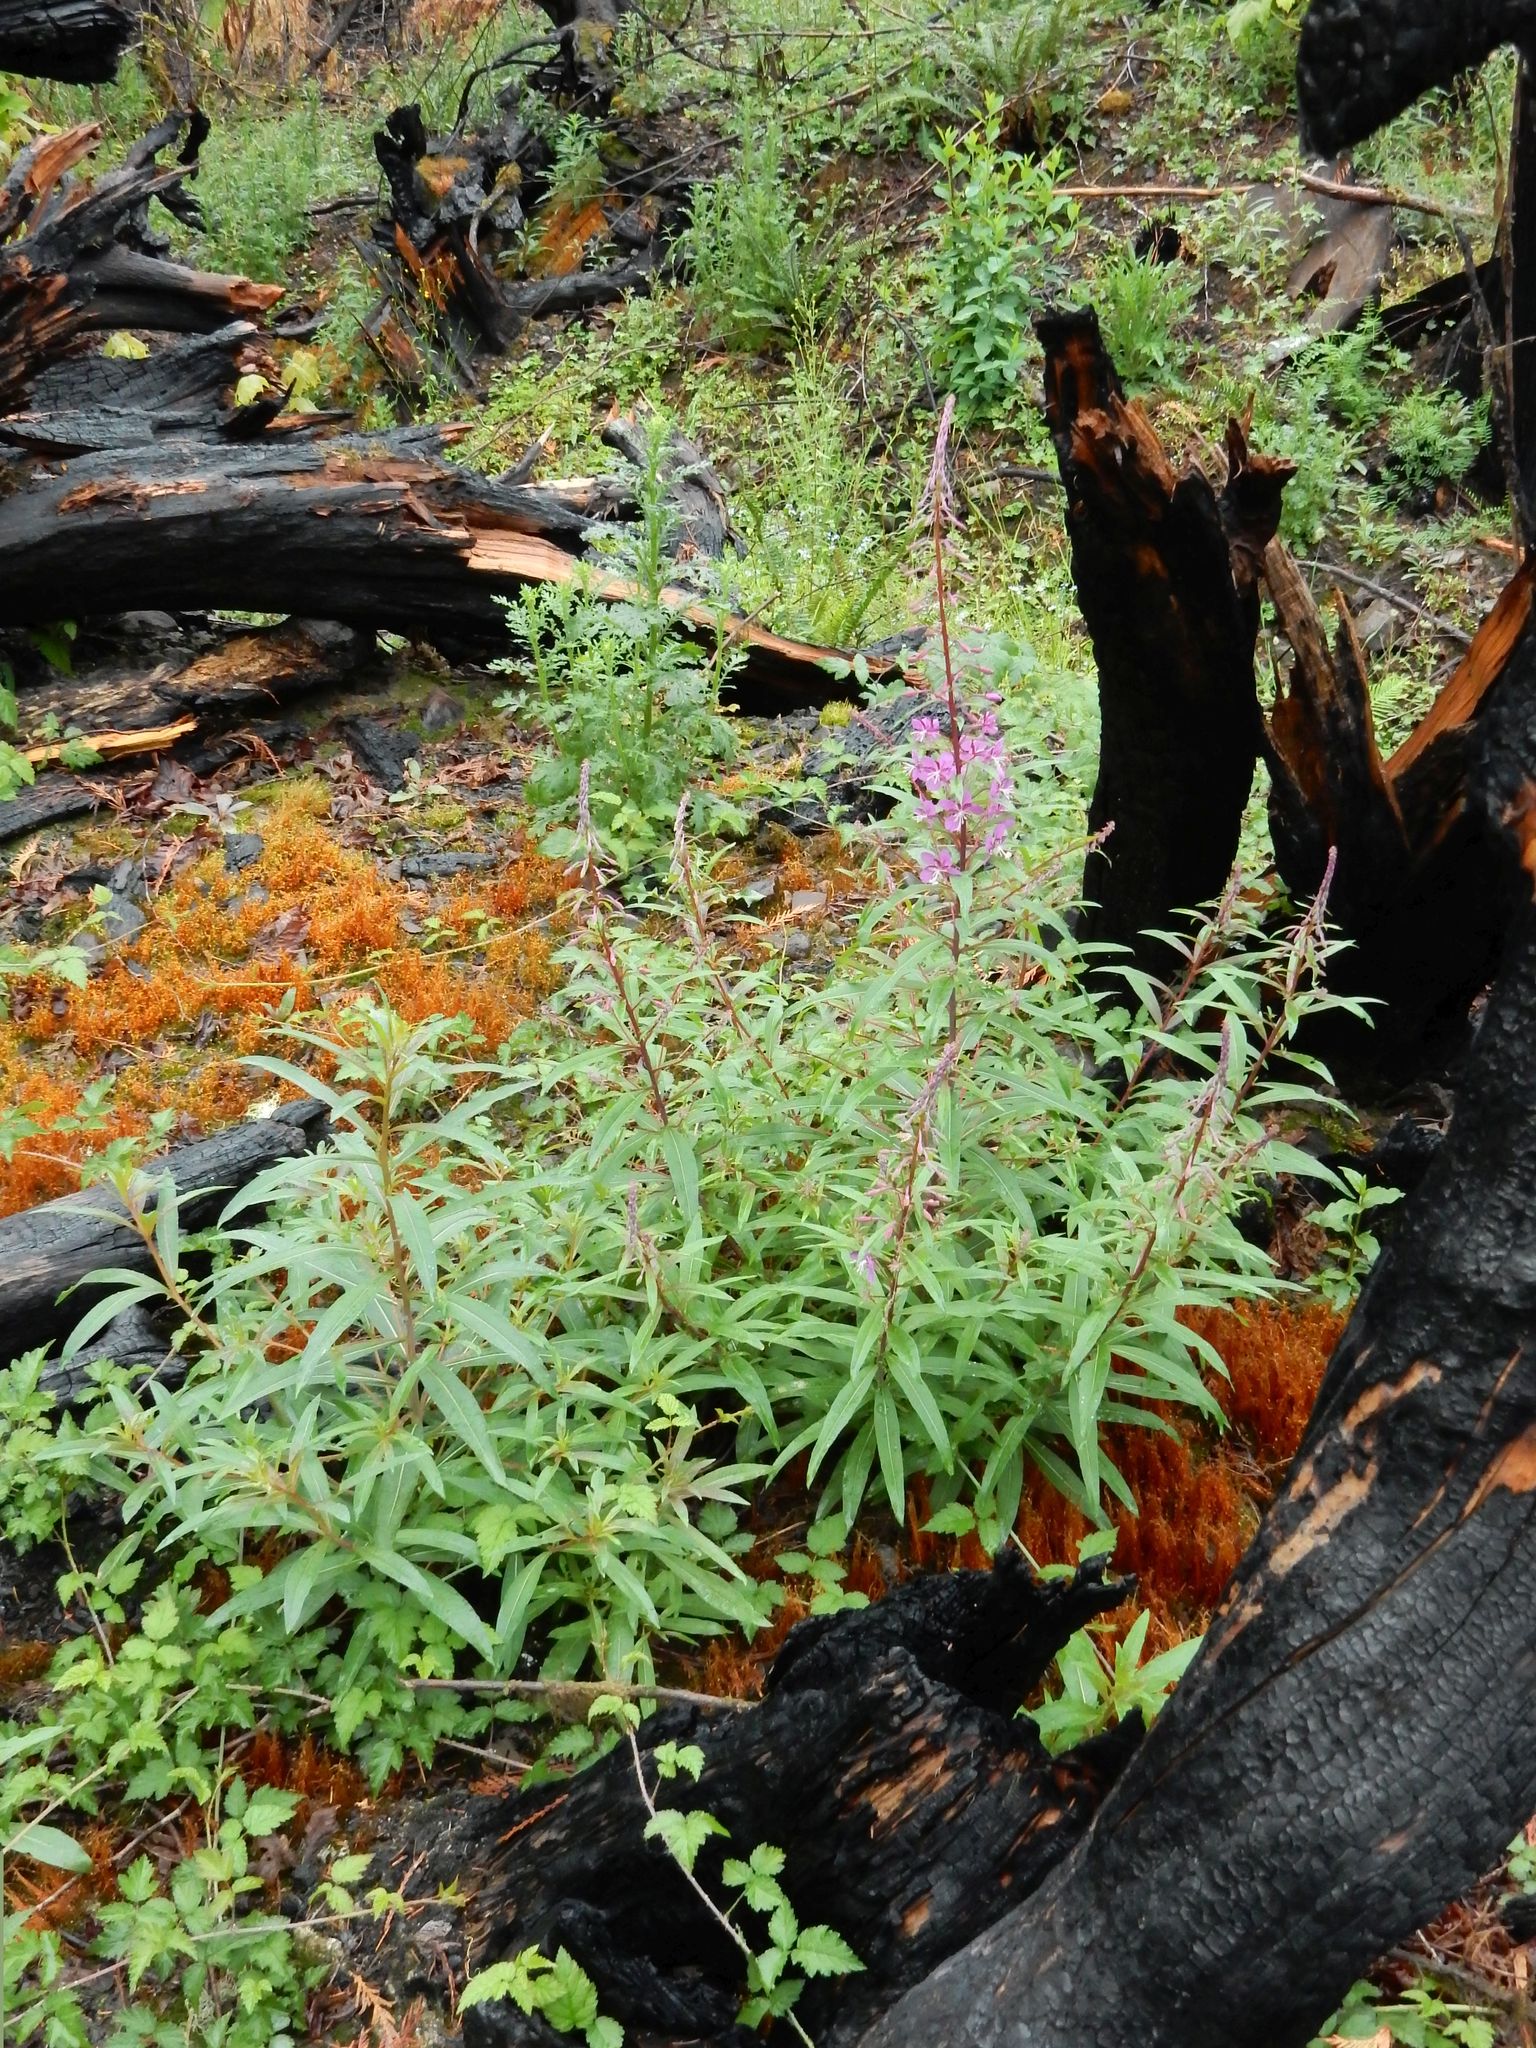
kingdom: Plantae
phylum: Tracheophyta
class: Magnoliopsida
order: Myrtales
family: Onagraceae
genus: Chamaenerion
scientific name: Chamaenerion angustifolium
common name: Fireweed
